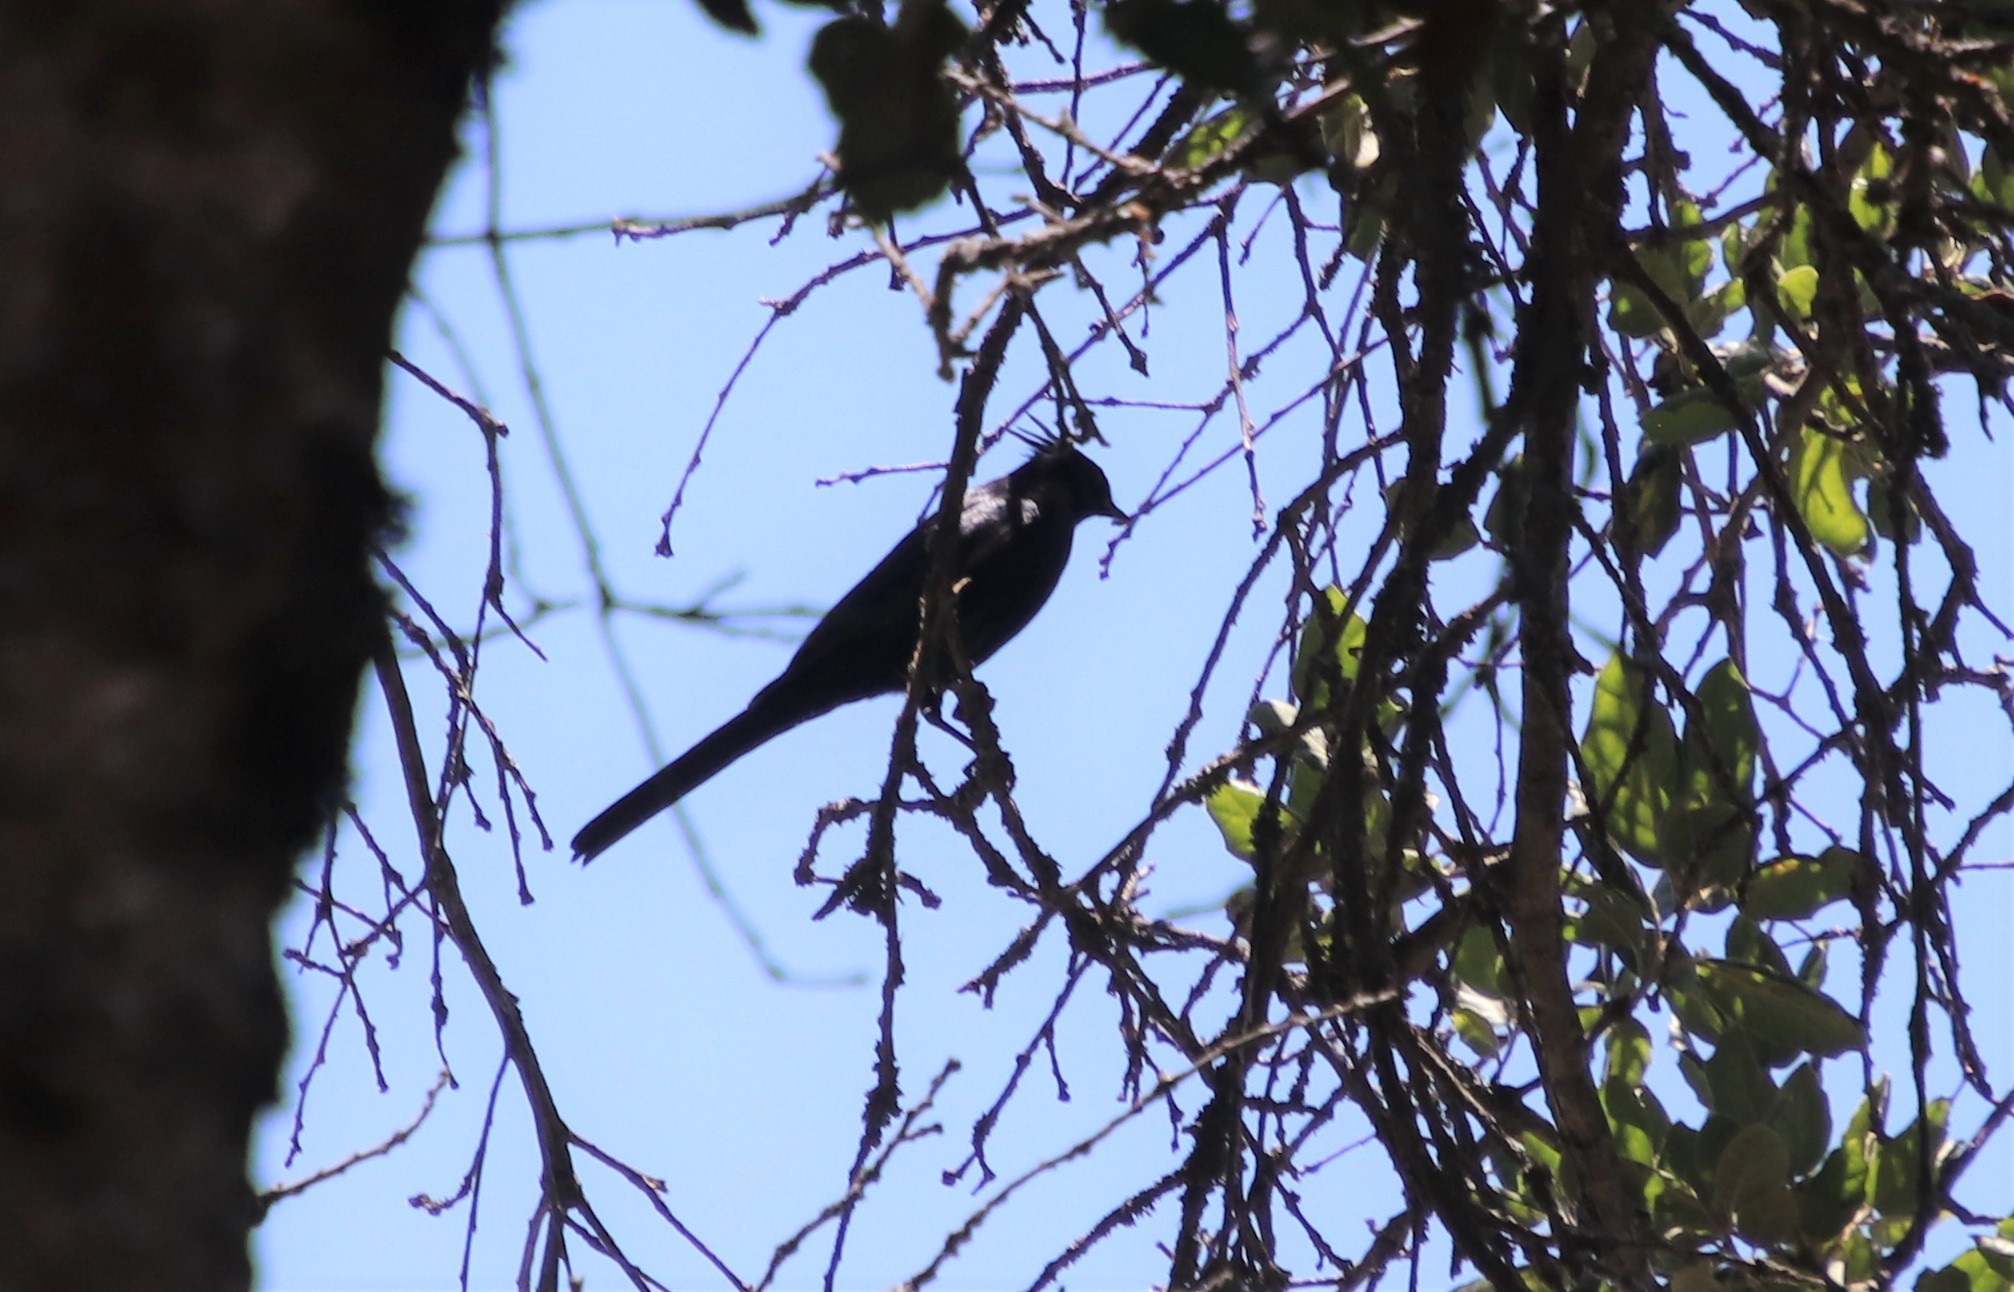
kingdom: Animalia
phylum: Chordata
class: Aves
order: Passeriformes
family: Ptilogonatidae
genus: Phainopepla
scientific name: Phainopepla nitens
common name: Phainopepla
